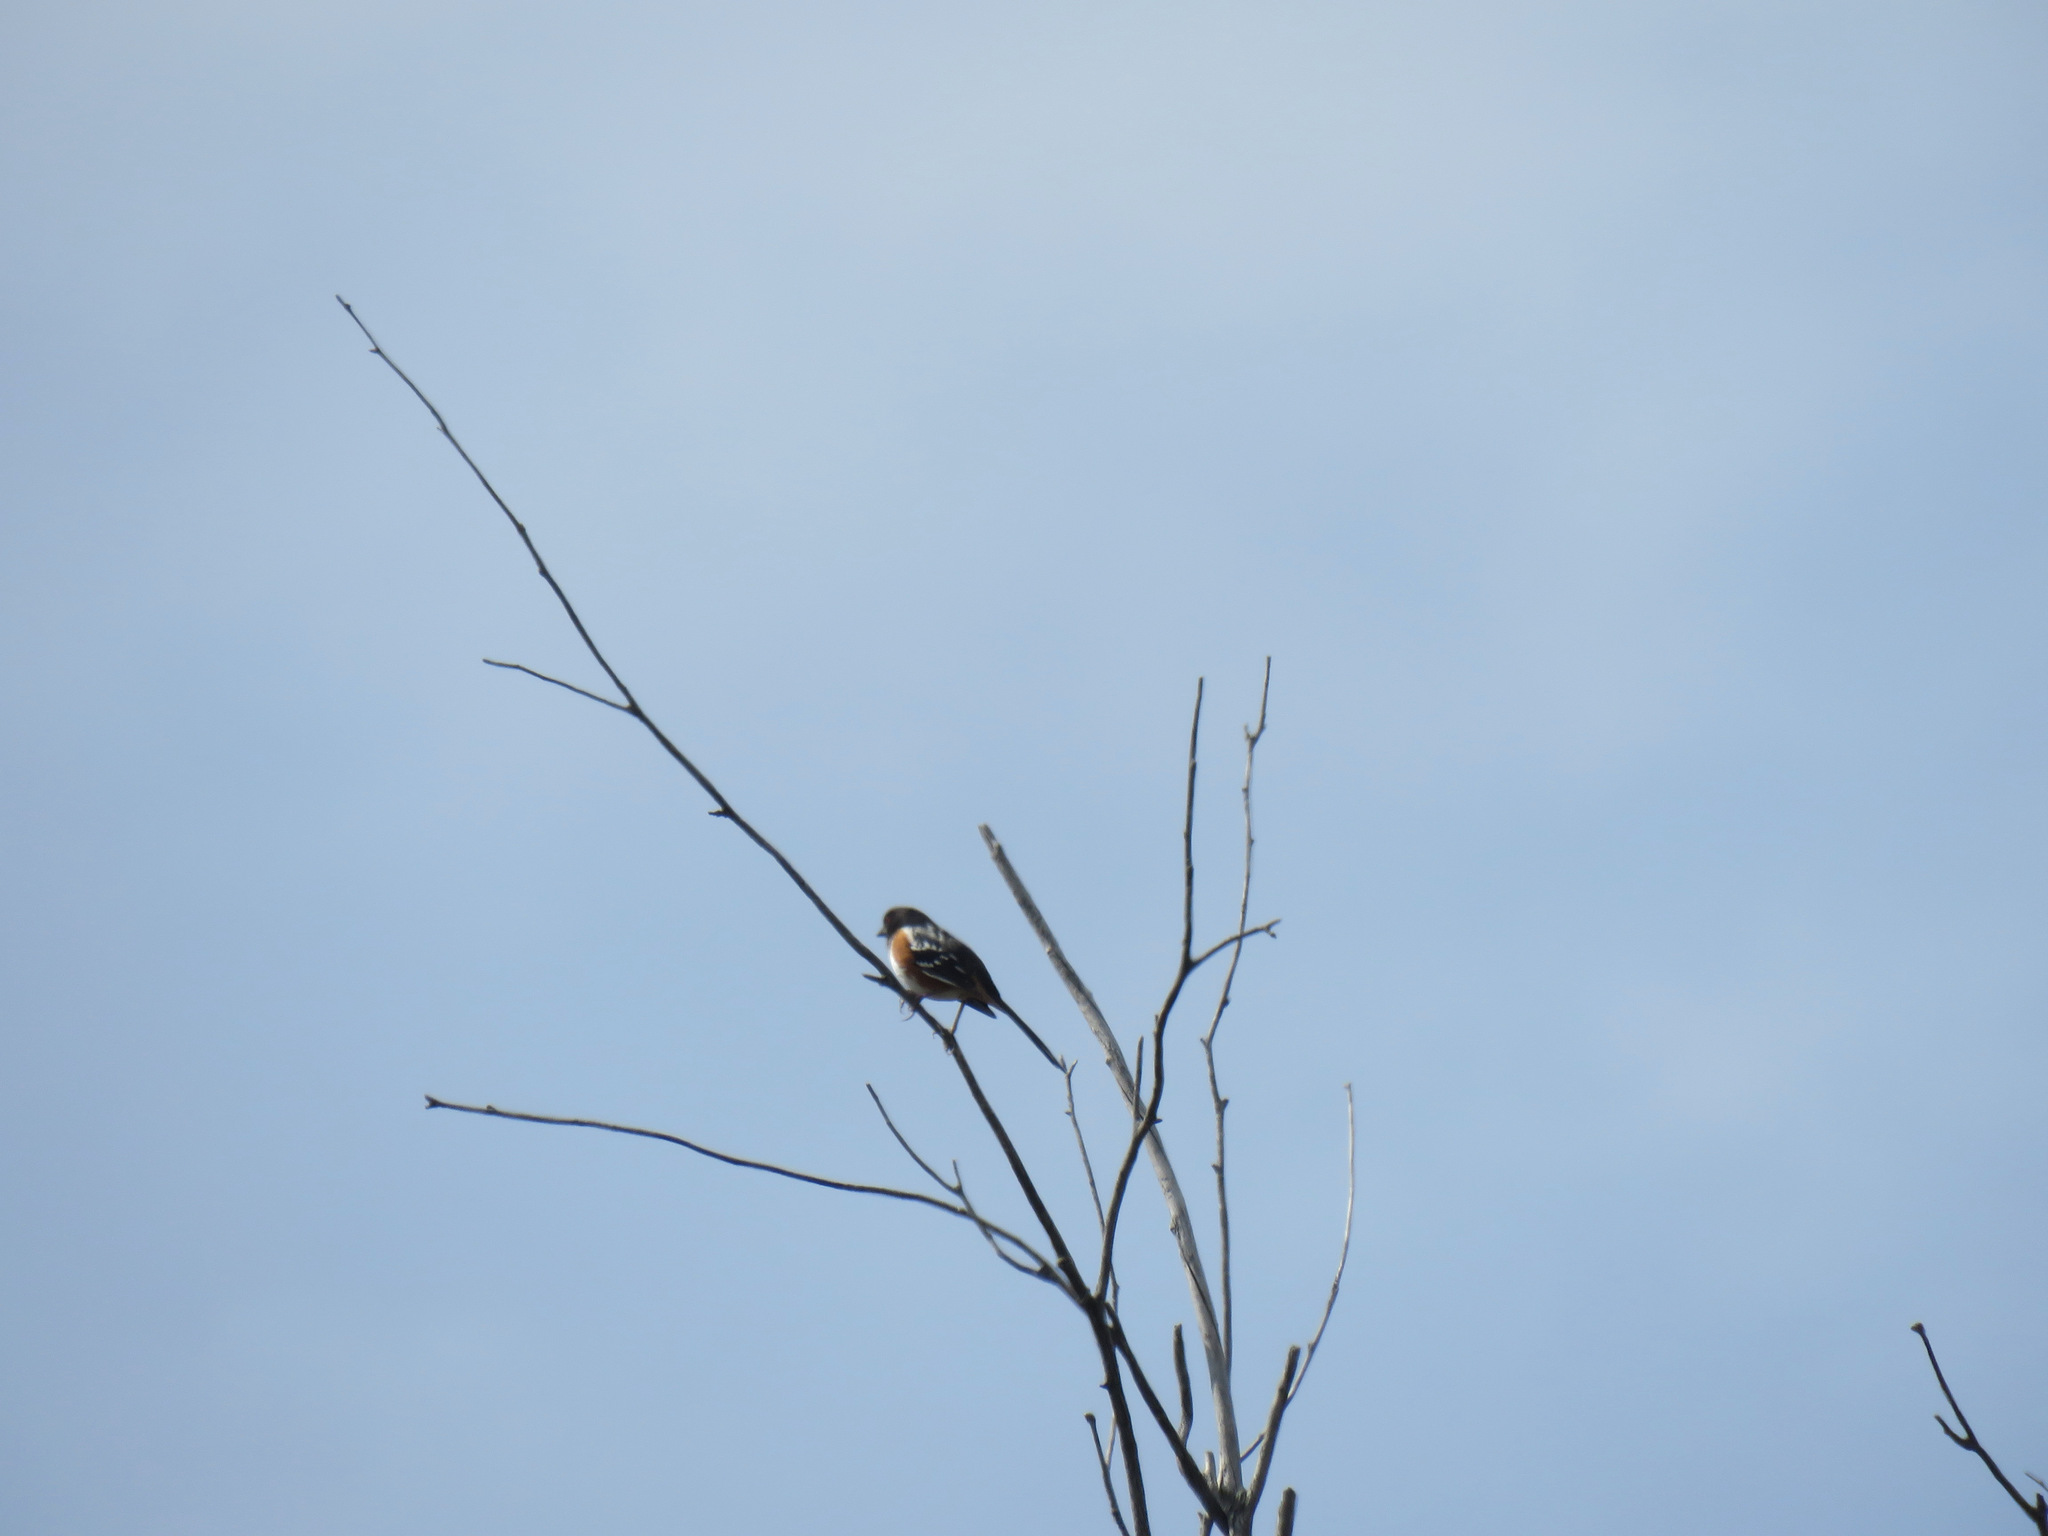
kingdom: Animalia
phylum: Chordata
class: Aves
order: Passeriformes
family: Passerellidae
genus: Pipilo
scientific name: Pipilo maculatus
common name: Spotted towhee
